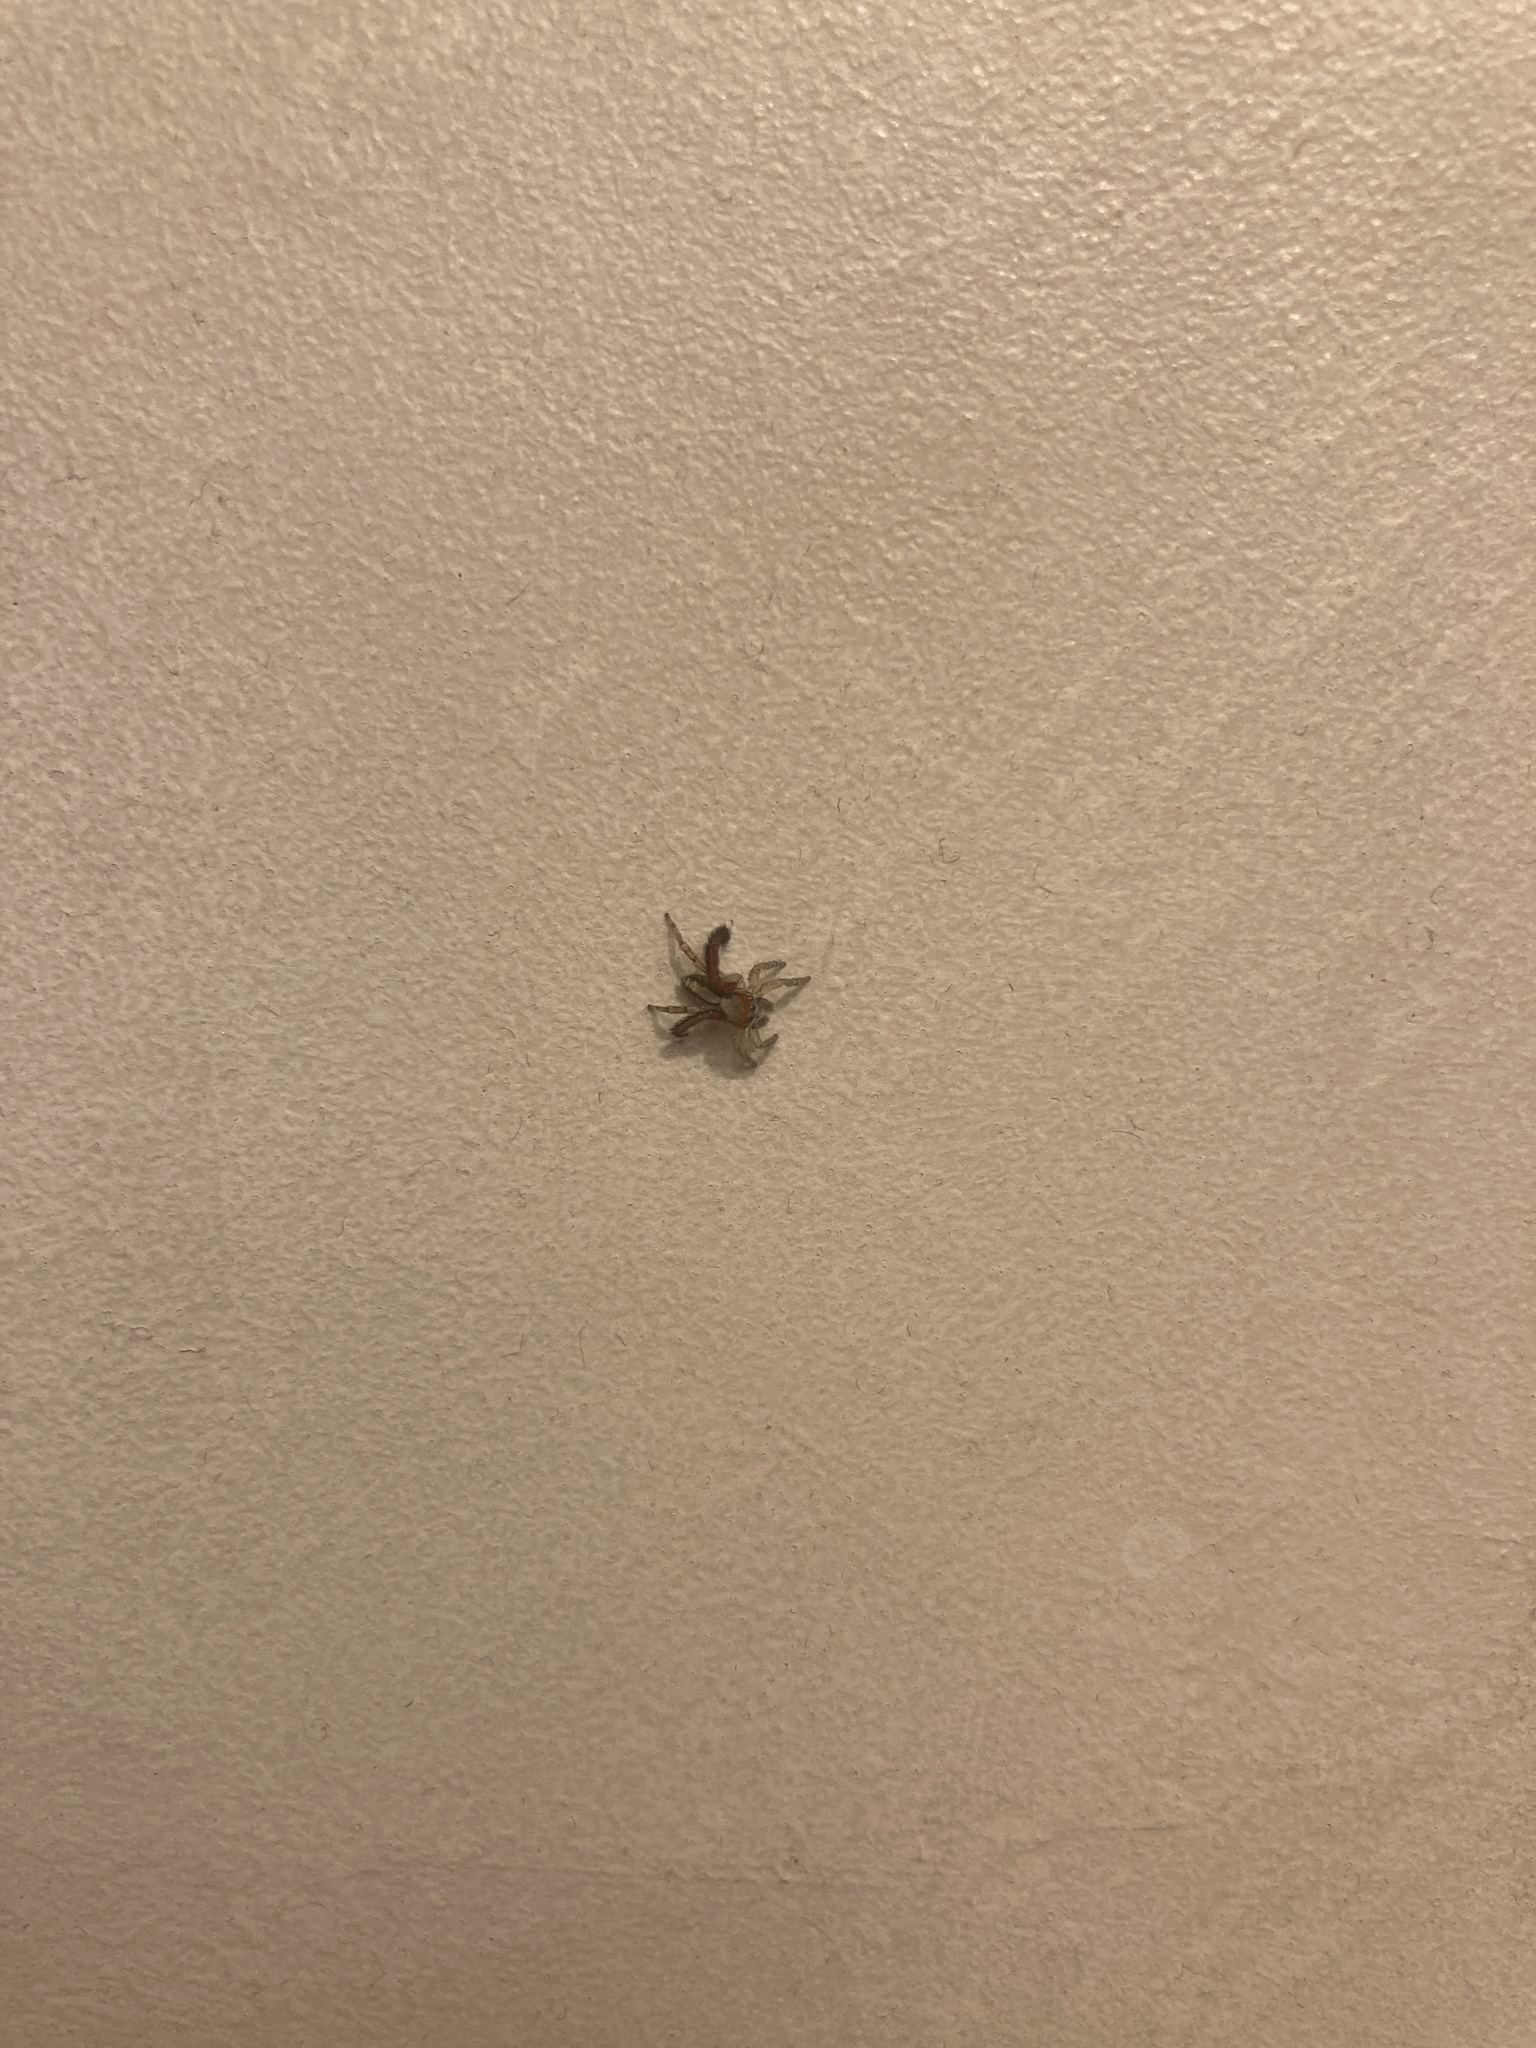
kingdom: Animalia
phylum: Arthropoda
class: Arachnida
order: Araneae
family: Salticidae
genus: Saitis
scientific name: Saitis barbipes
